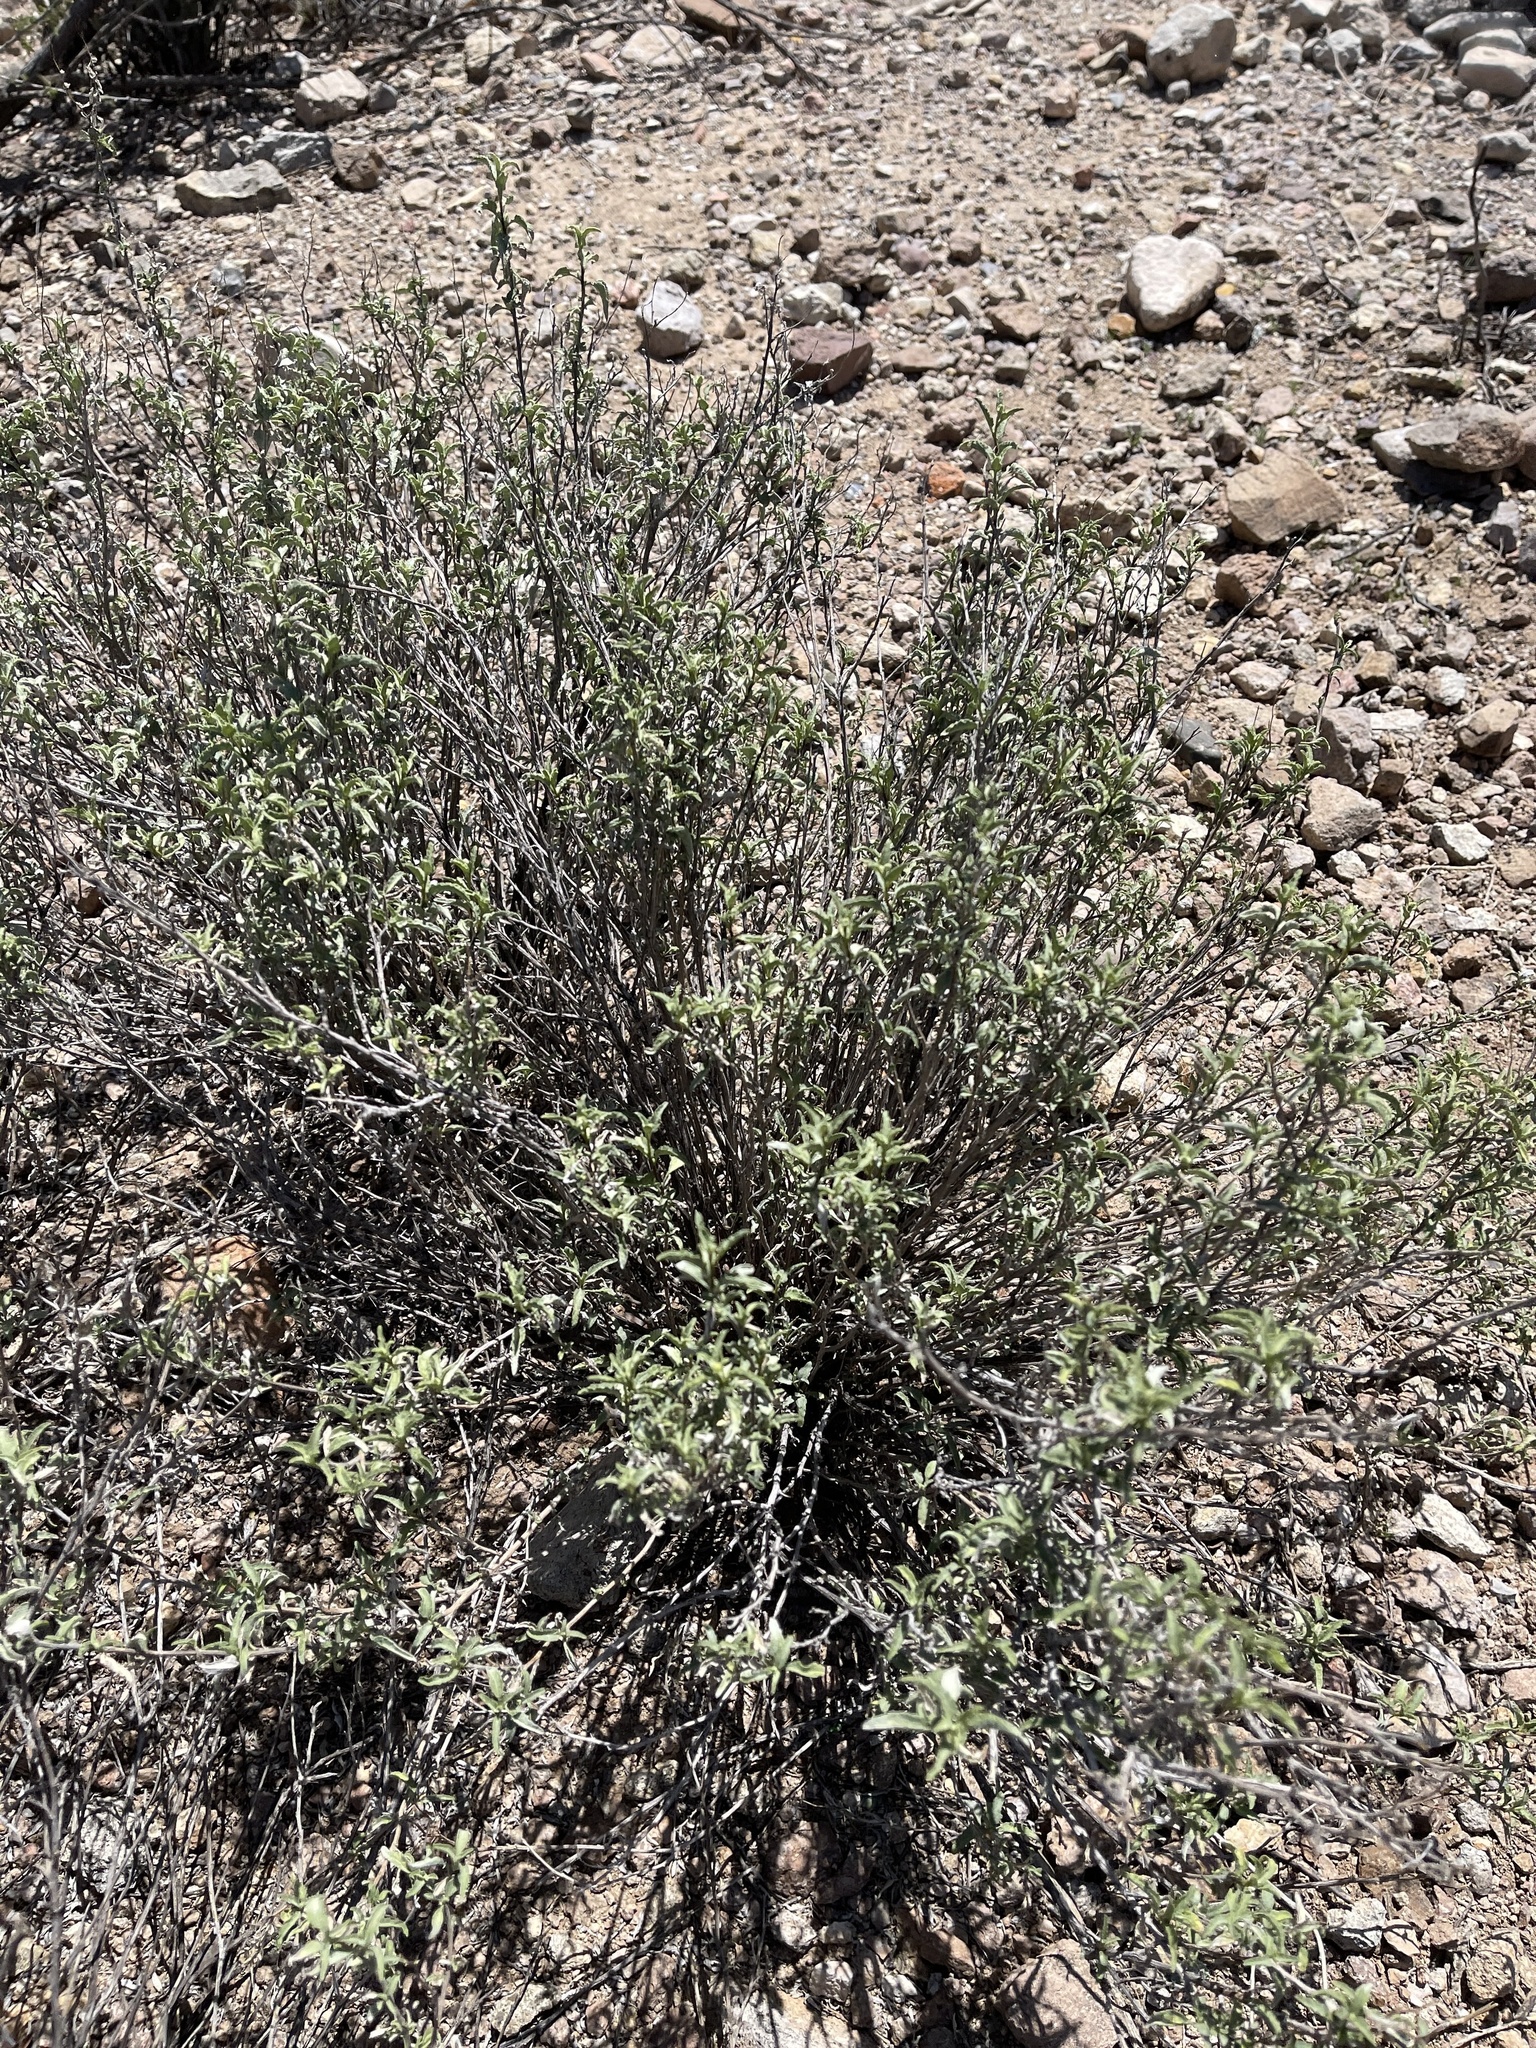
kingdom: Plantae
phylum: Tracheophyta
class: Magnoliopsida
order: Asterales
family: Asteraceae
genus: Ambrosia
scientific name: Ambrosia deltoidea
